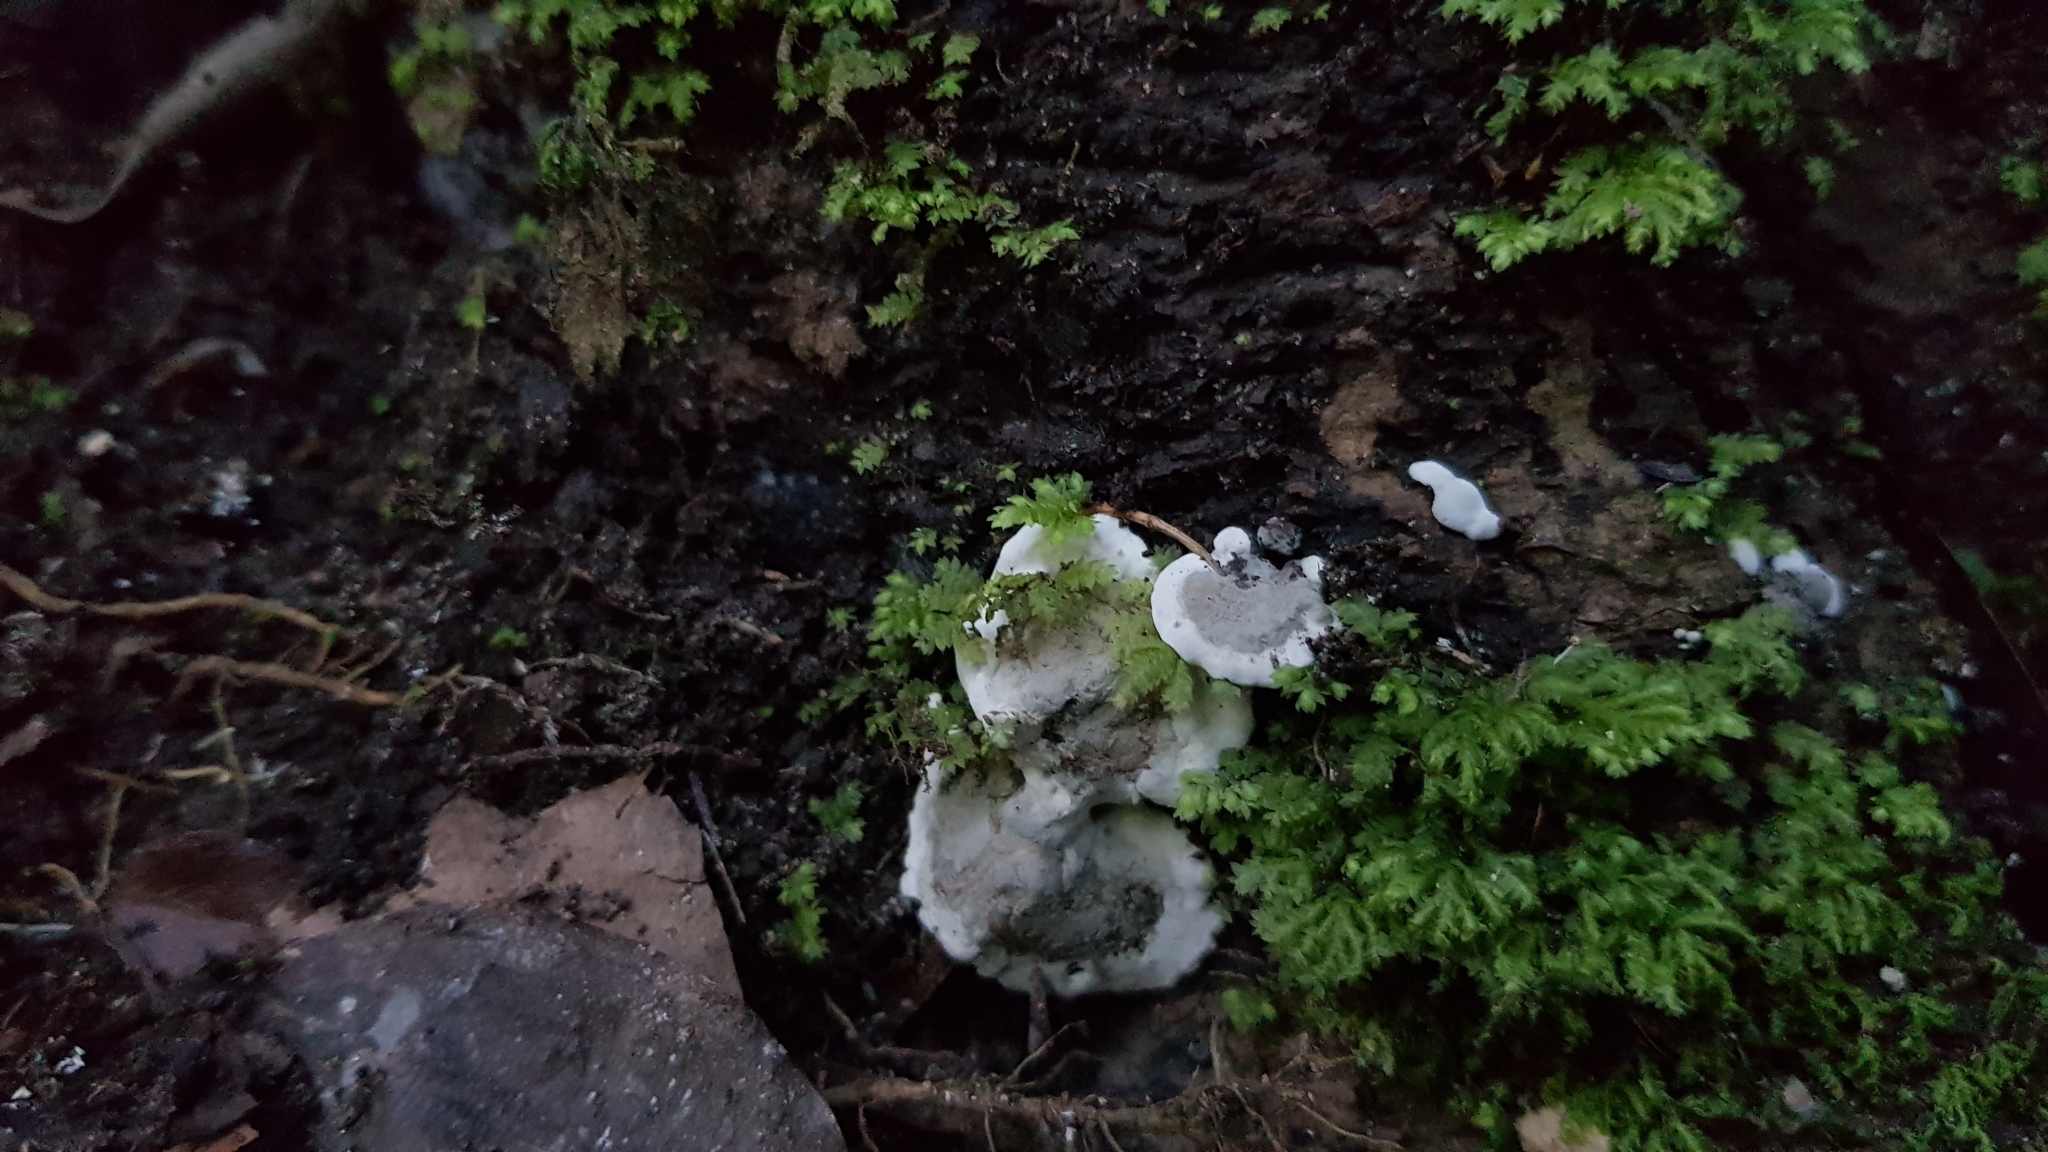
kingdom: Fungi
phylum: Ascomycota
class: Sordariomycetes
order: Xylariales
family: Xylariaceae
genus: Kretzschmaria
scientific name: Kretzschmaria deusta
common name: Brittle cinder
